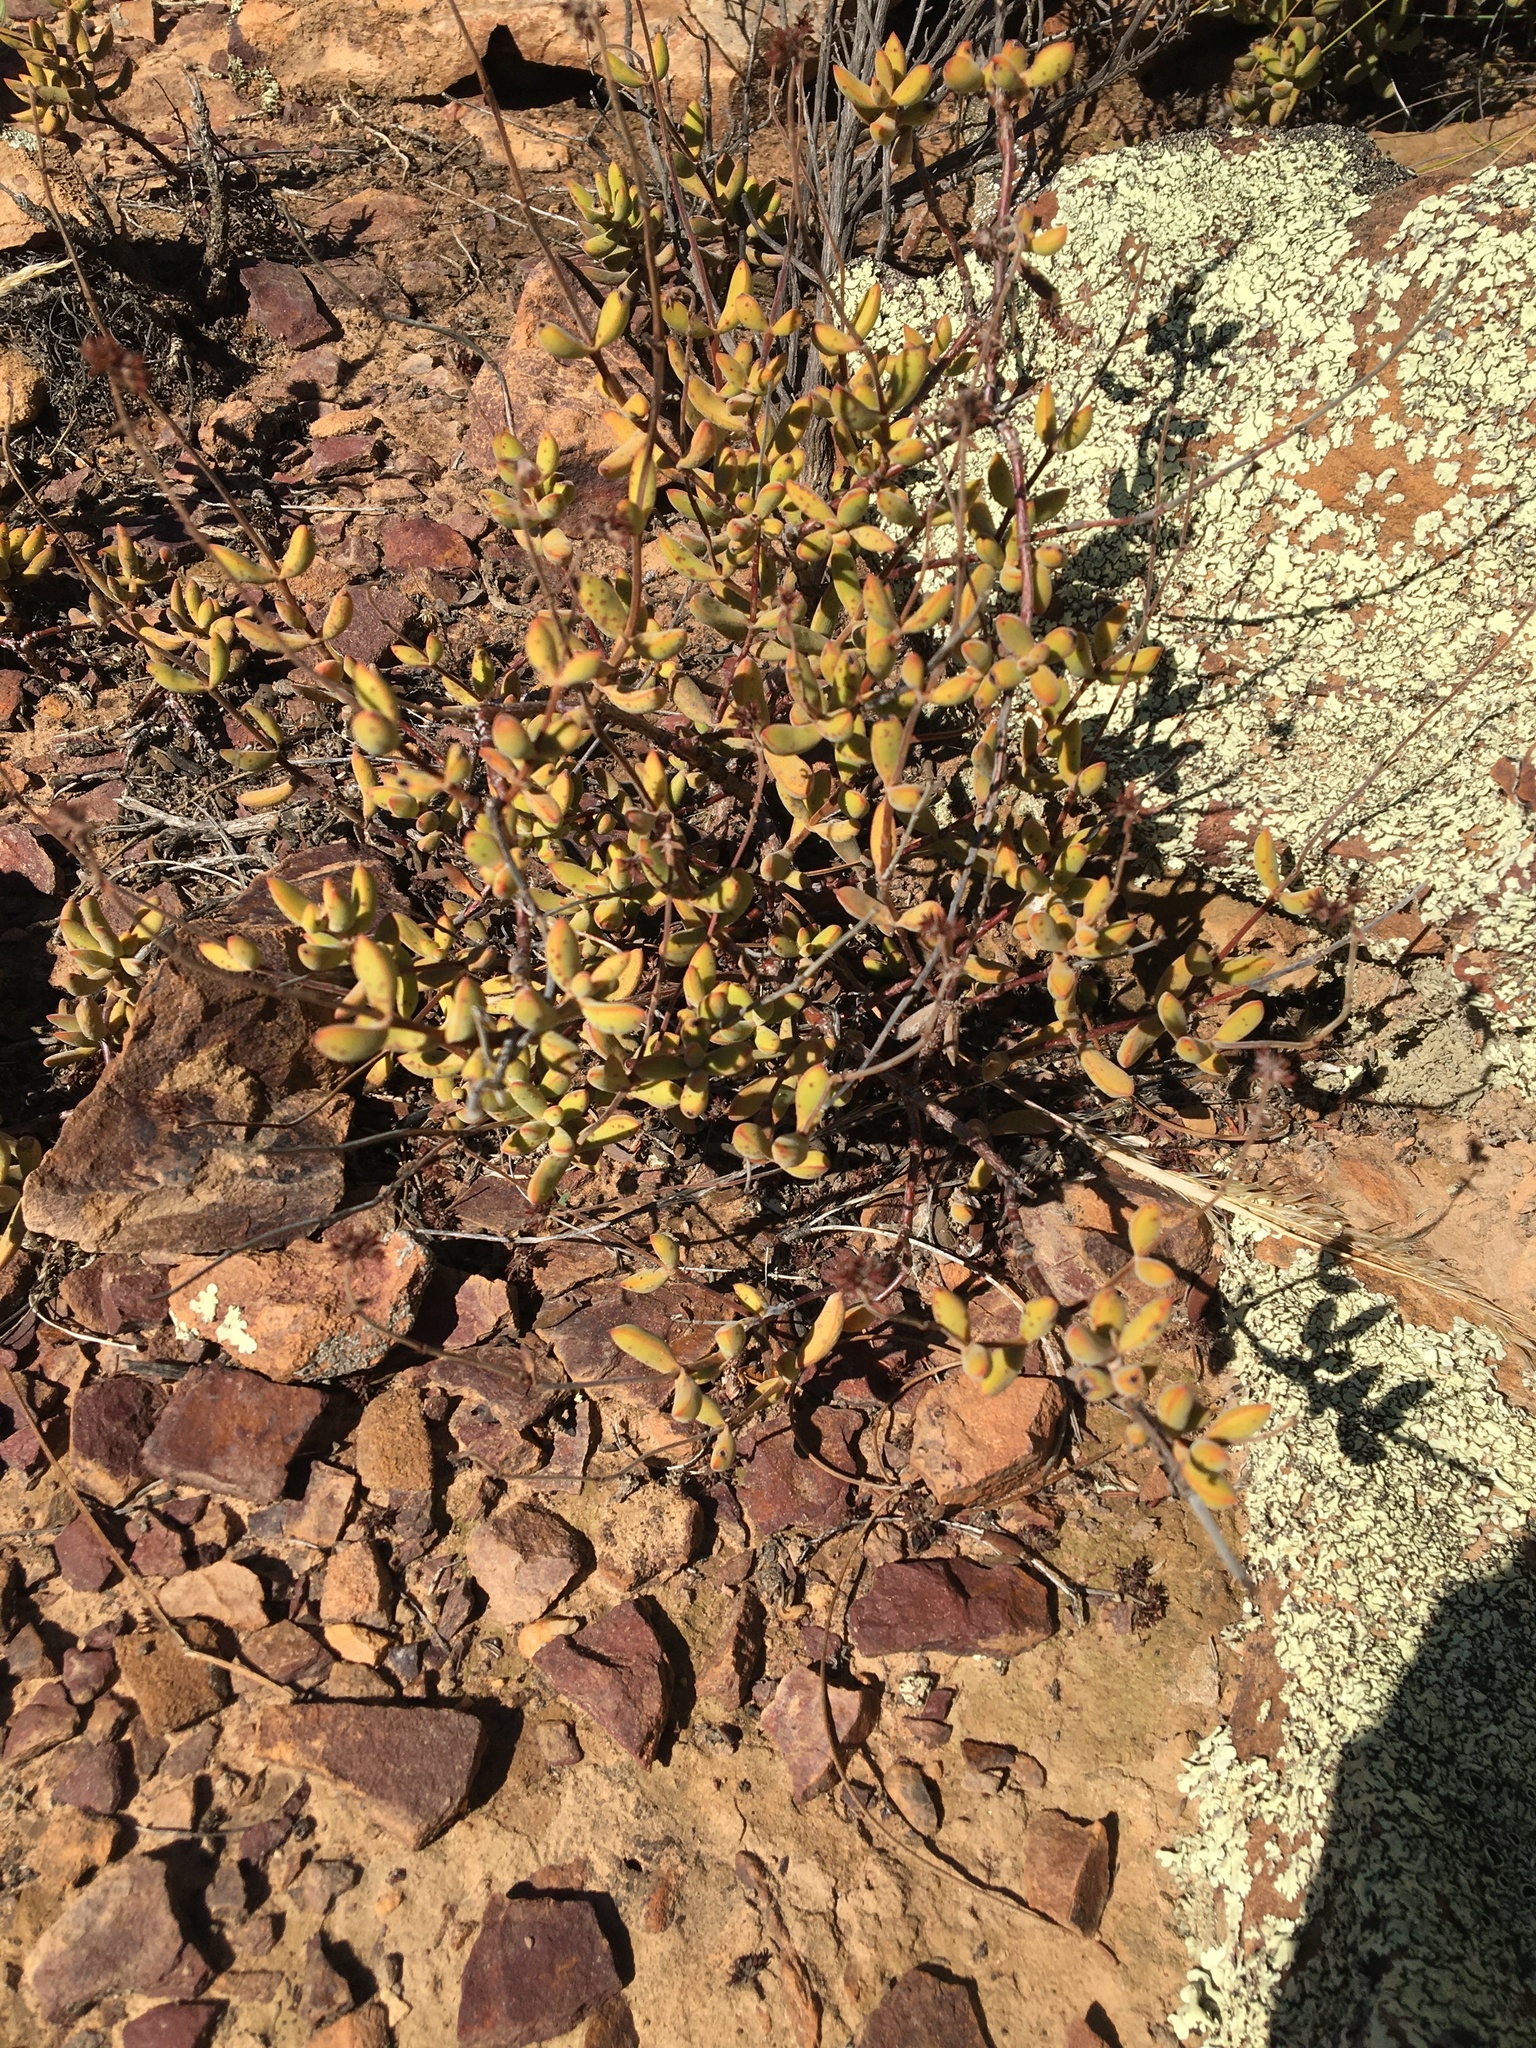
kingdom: Plantae
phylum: Tracheophyta
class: Magnoliopsida
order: Saxifragales
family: Crassulaceae
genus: Crassula
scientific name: Crassula atropurpurea
